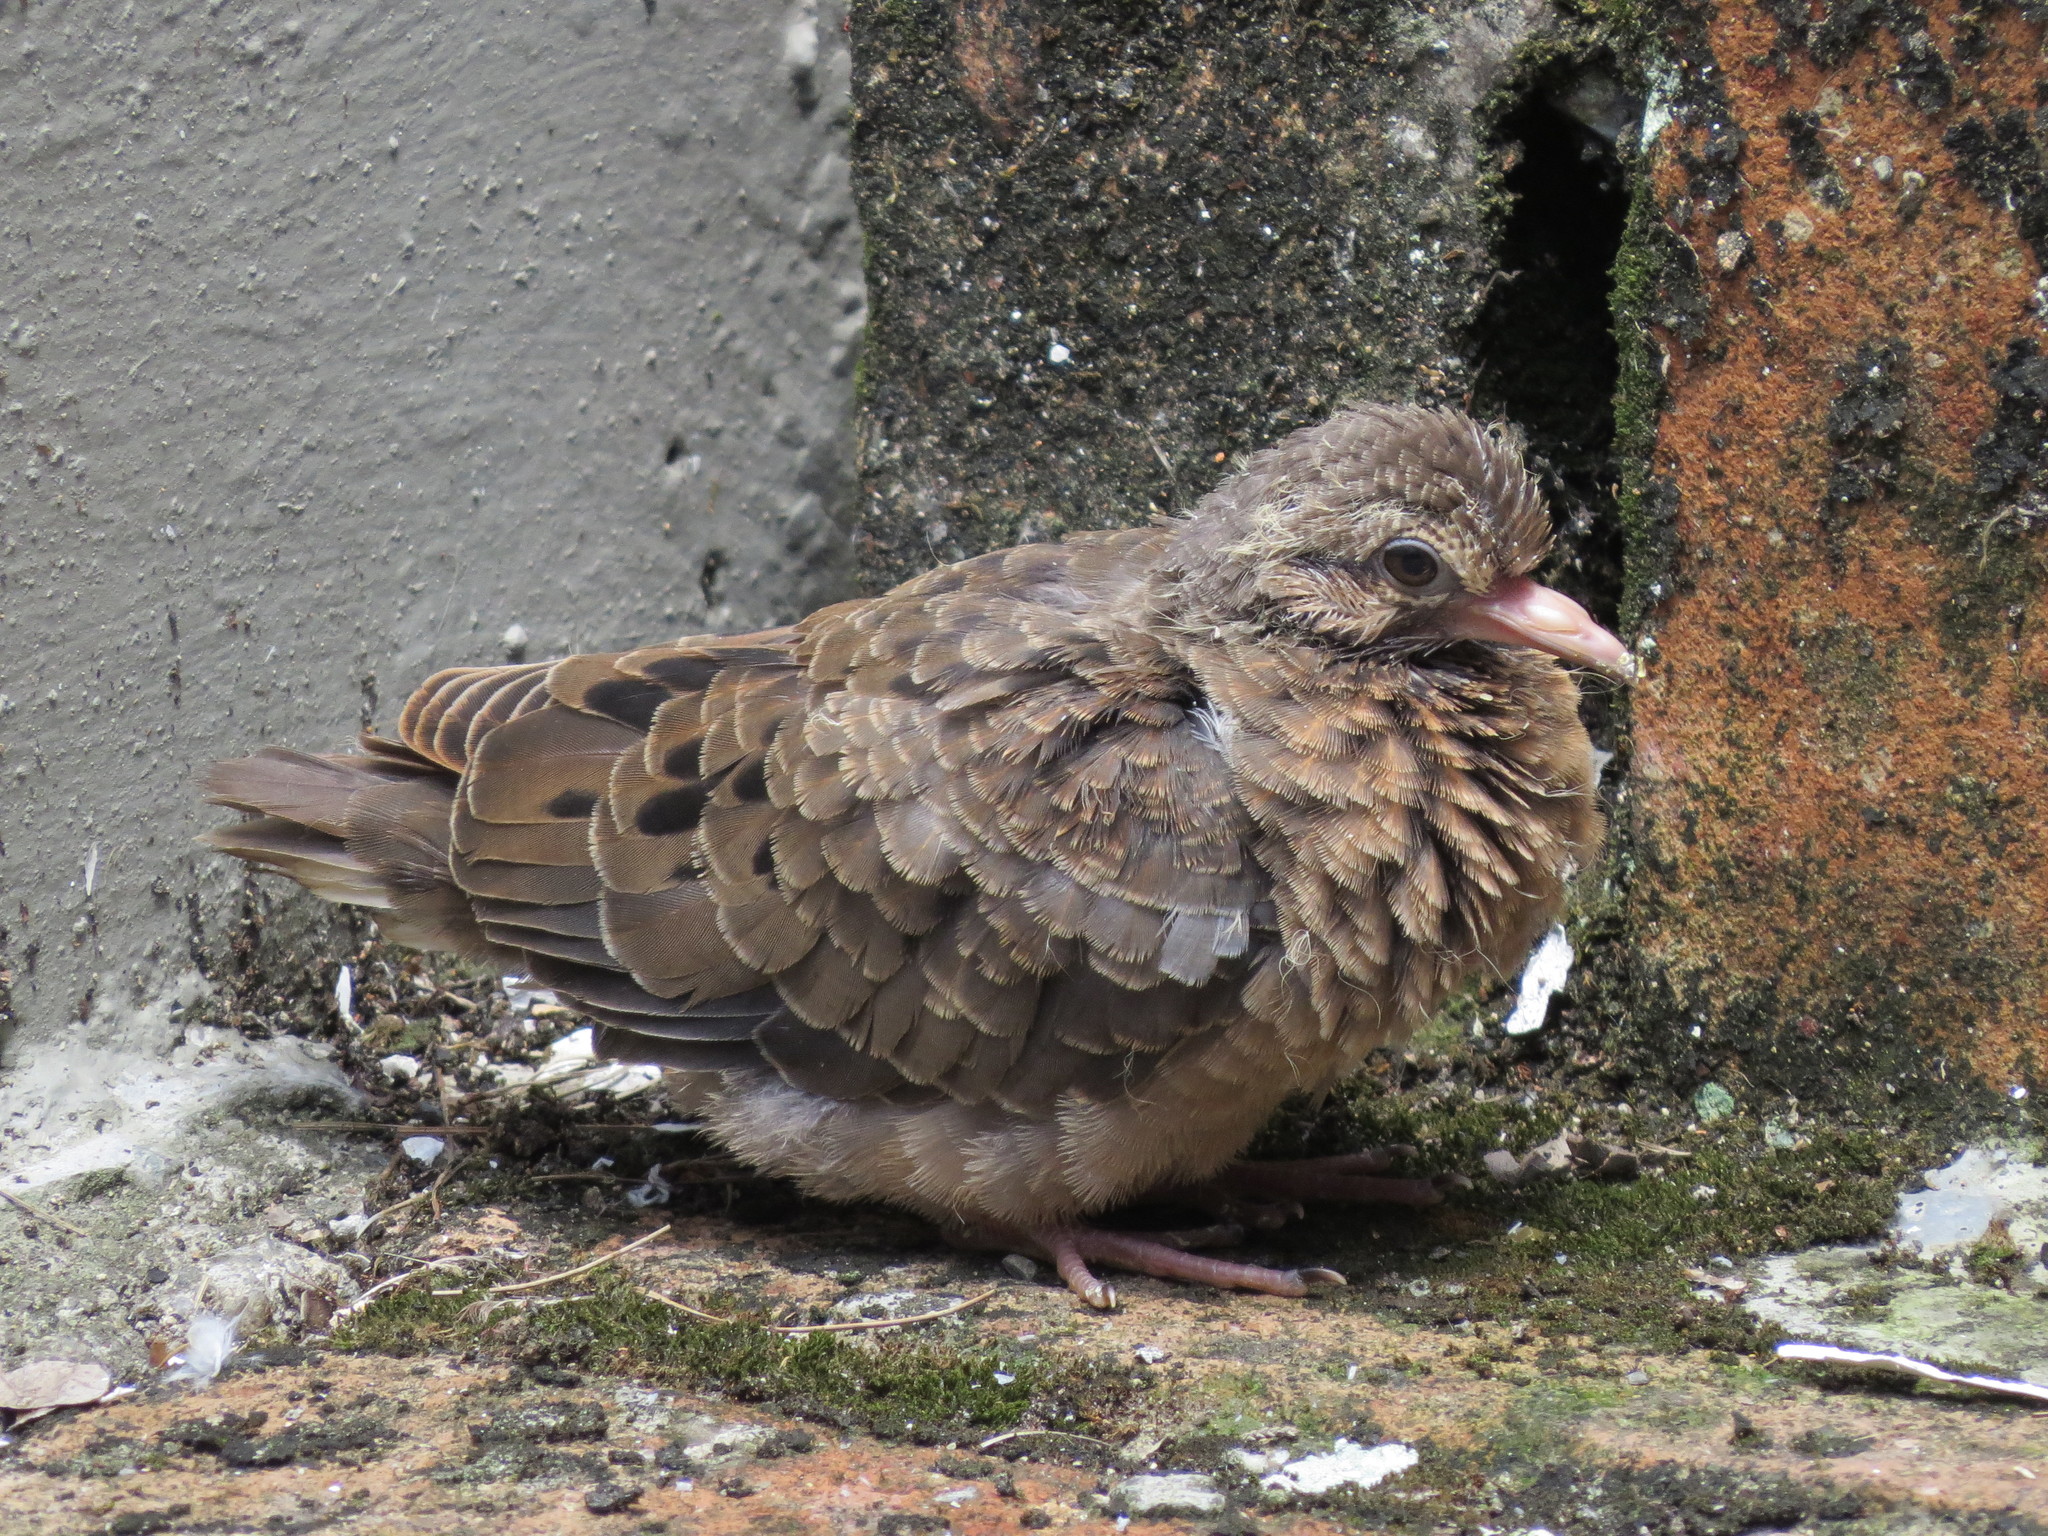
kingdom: Animalia
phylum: Chordata
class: Aves
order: Columbiformes
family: Columbidae
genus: Columbina
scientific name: Columbina talpacoti
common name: Ruddy ground dove
